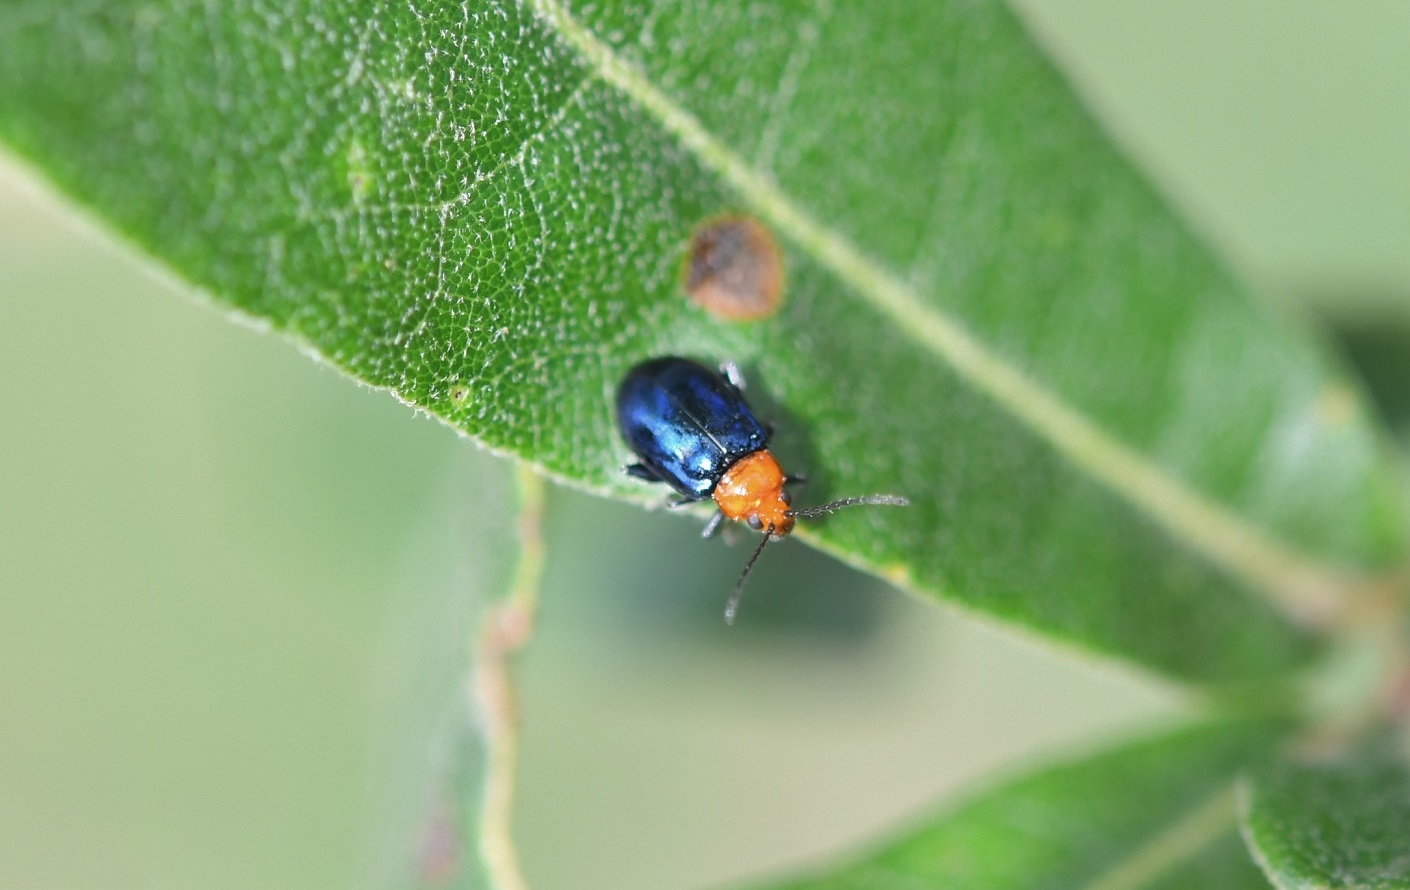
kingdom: Animalia
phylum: Arthropoda
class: Insecta
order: Coleoptera
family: Chrysomelidae
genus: Diphaulaca
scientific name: Diphaulaca wagneri
